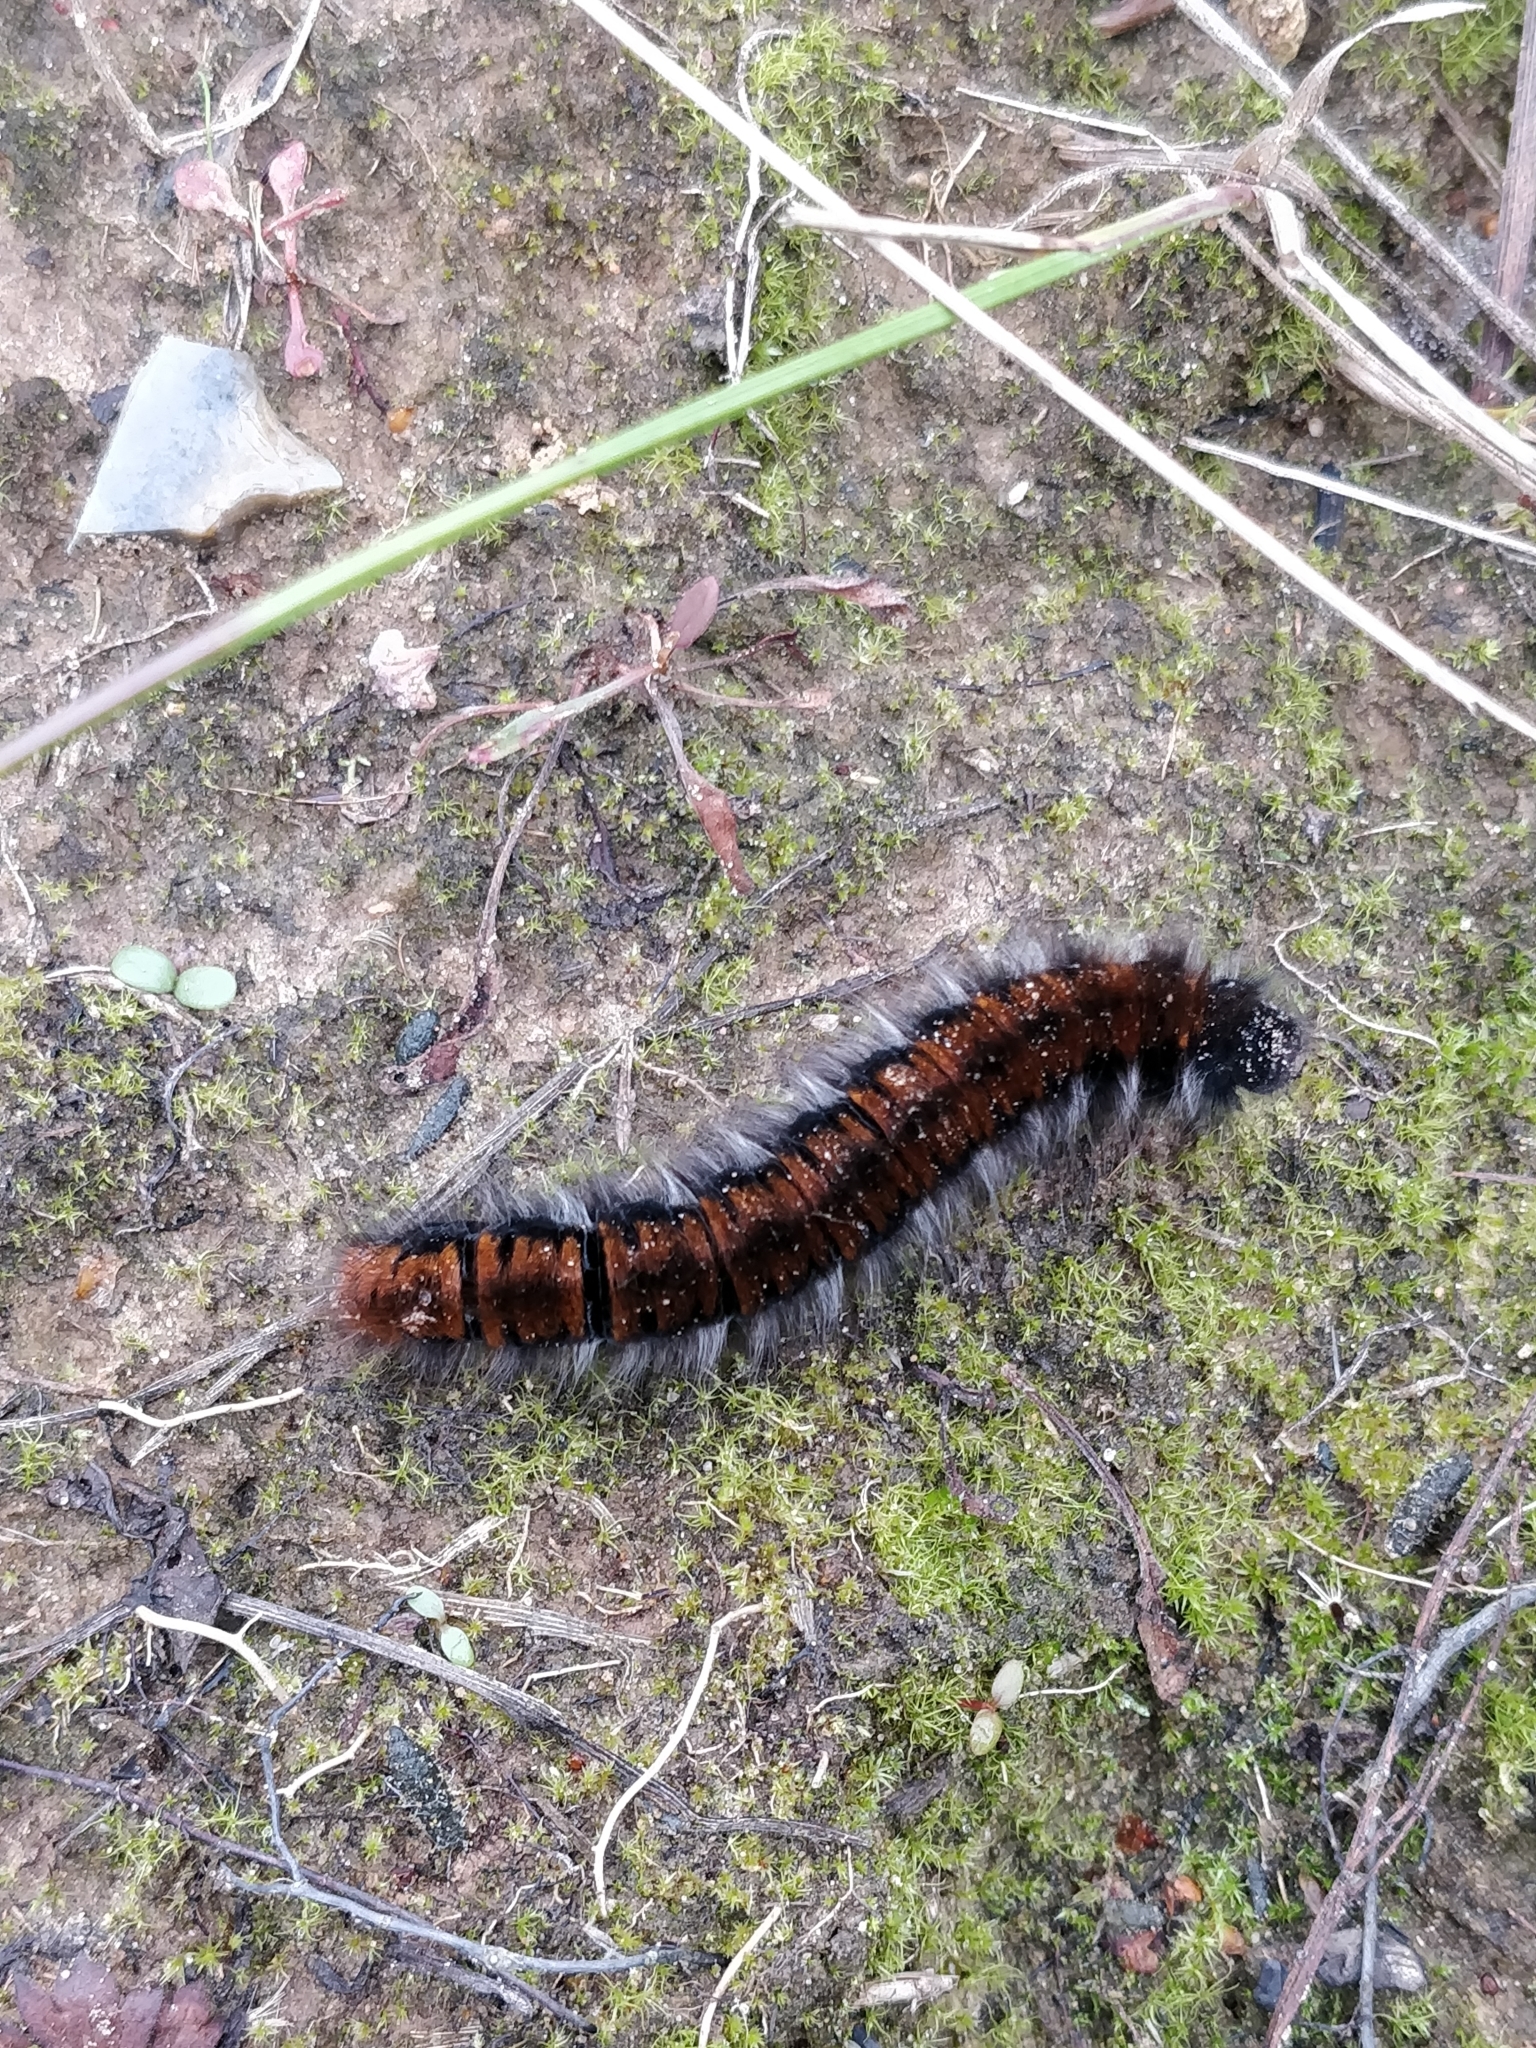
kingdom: Animalia
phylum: Arthropoda
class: Insecta
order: Lepidoptera
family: Lasiocampidae
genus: Macrothylacia
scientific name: Macrothylacia rubi
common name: Fox moth
